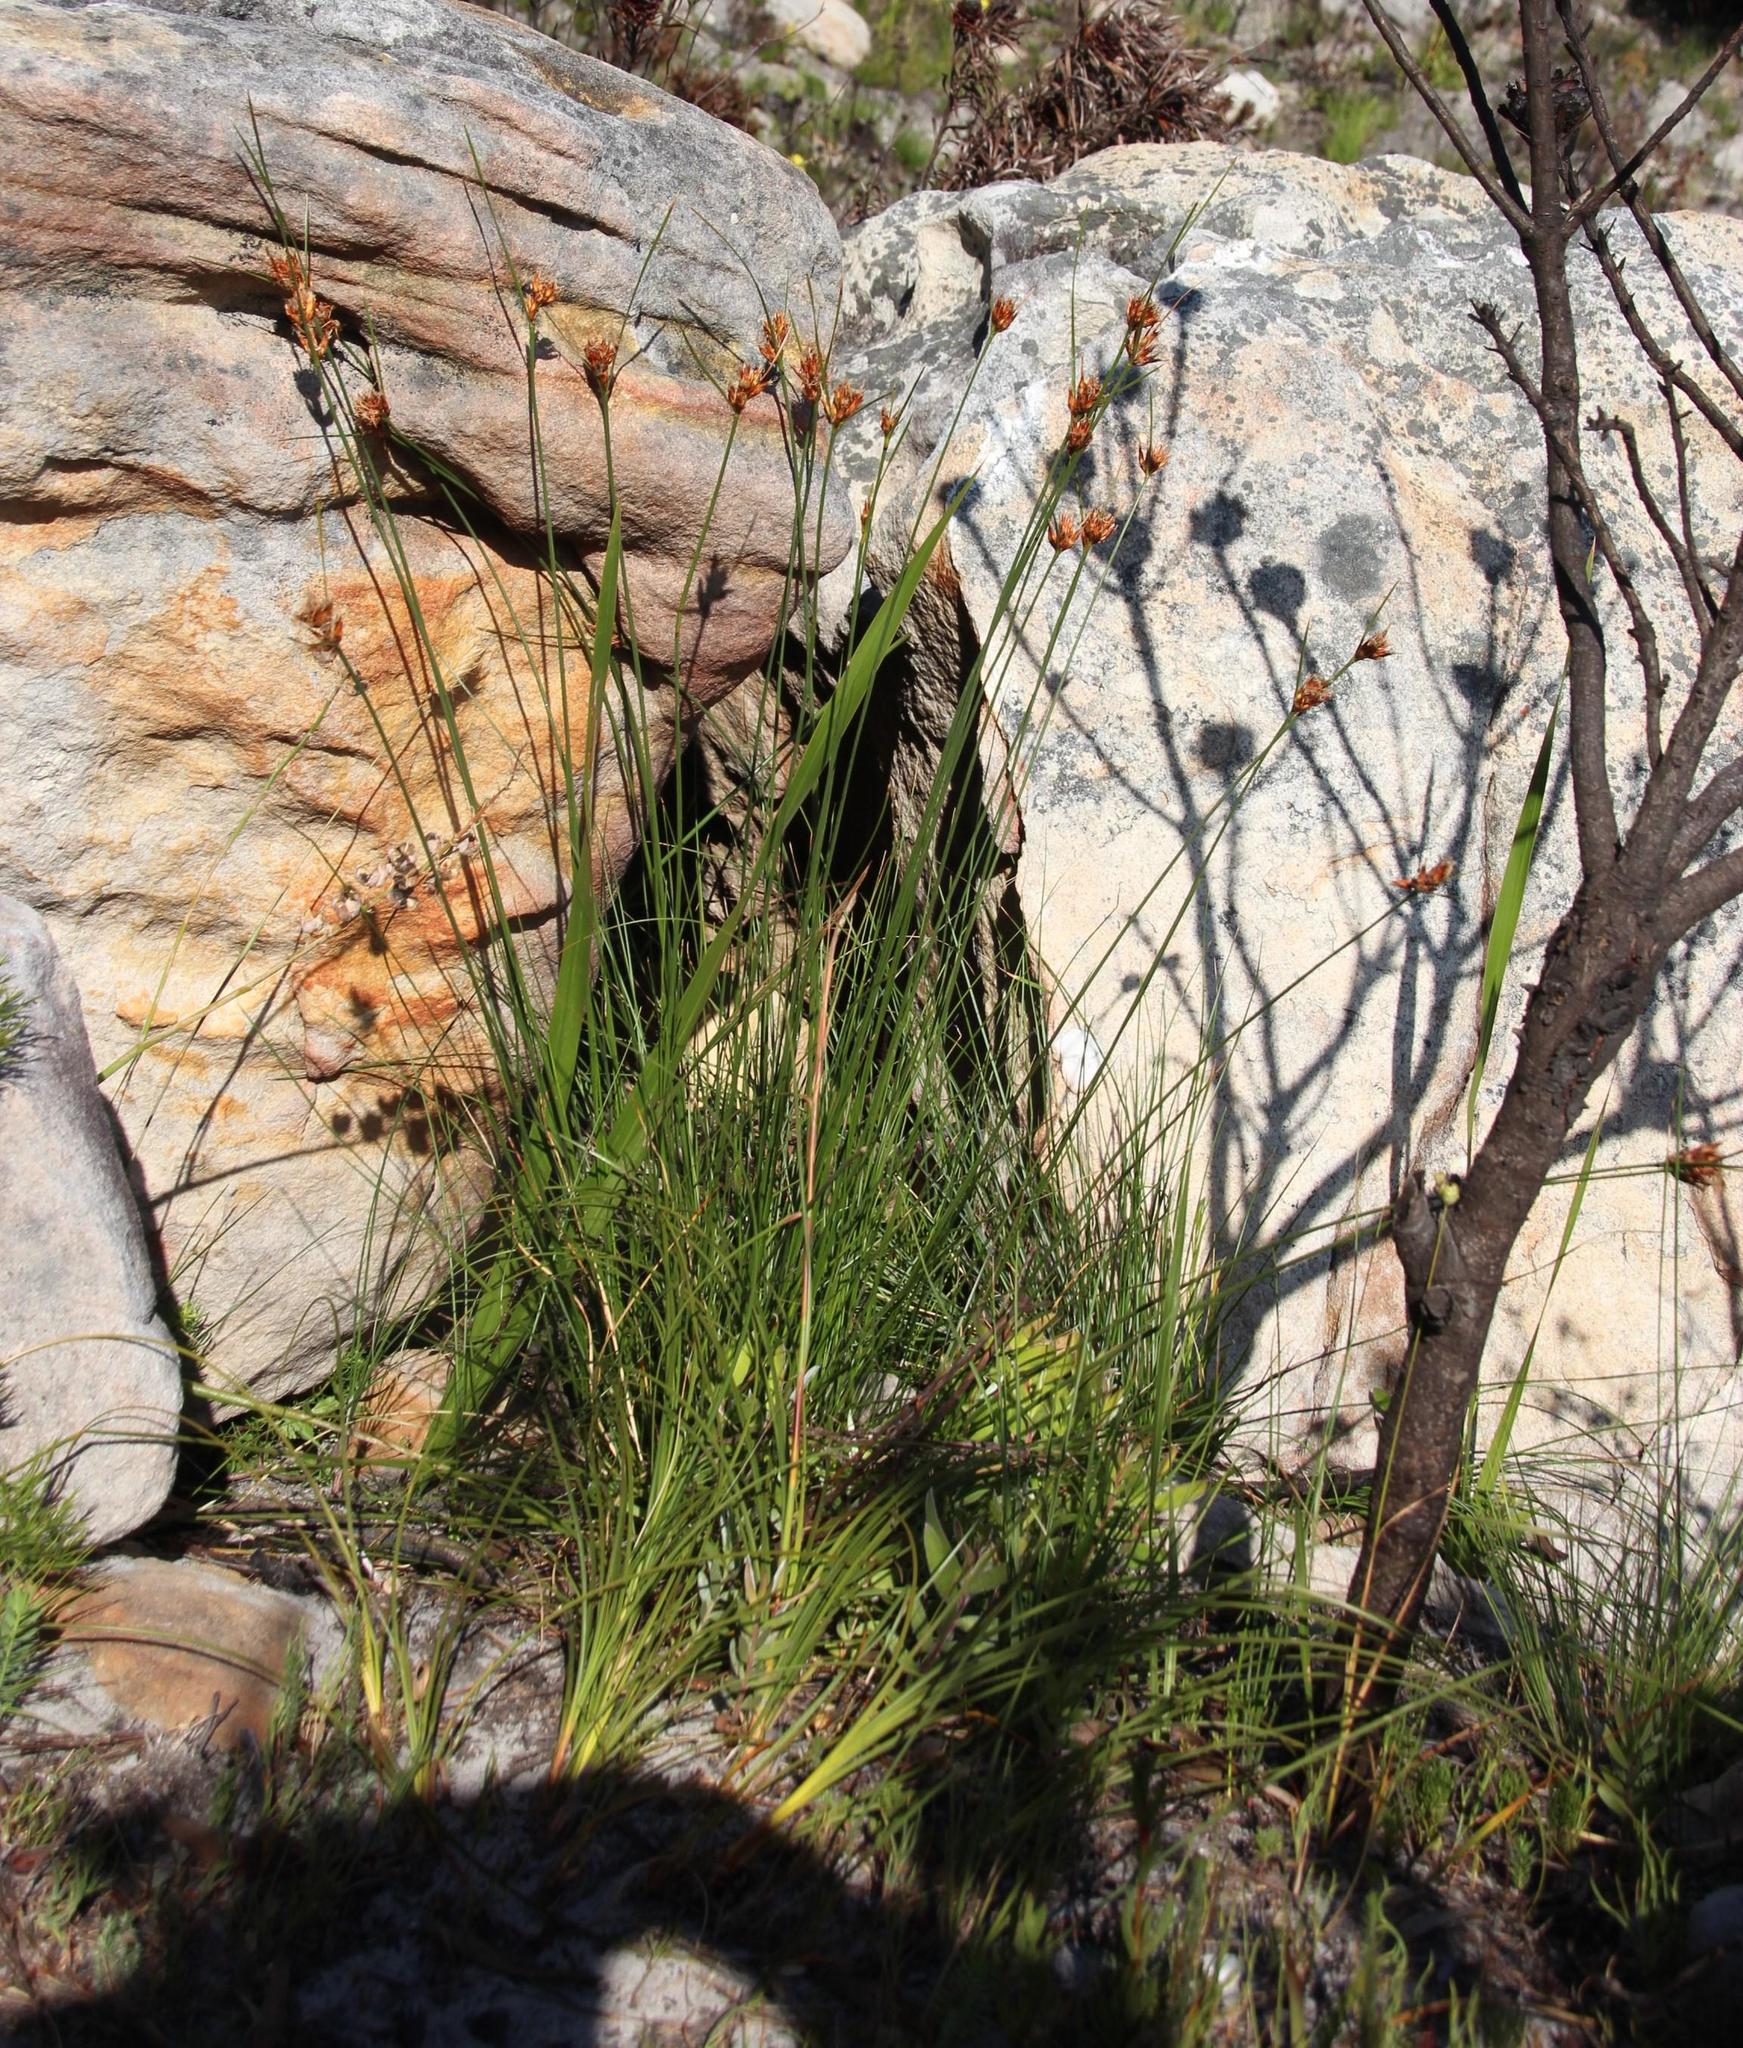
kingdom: Plantae
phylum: Tracheophyta
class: Liliopsida
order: Poales
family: Cyperaceae
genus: Schoenus
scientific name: Schoenus compar
